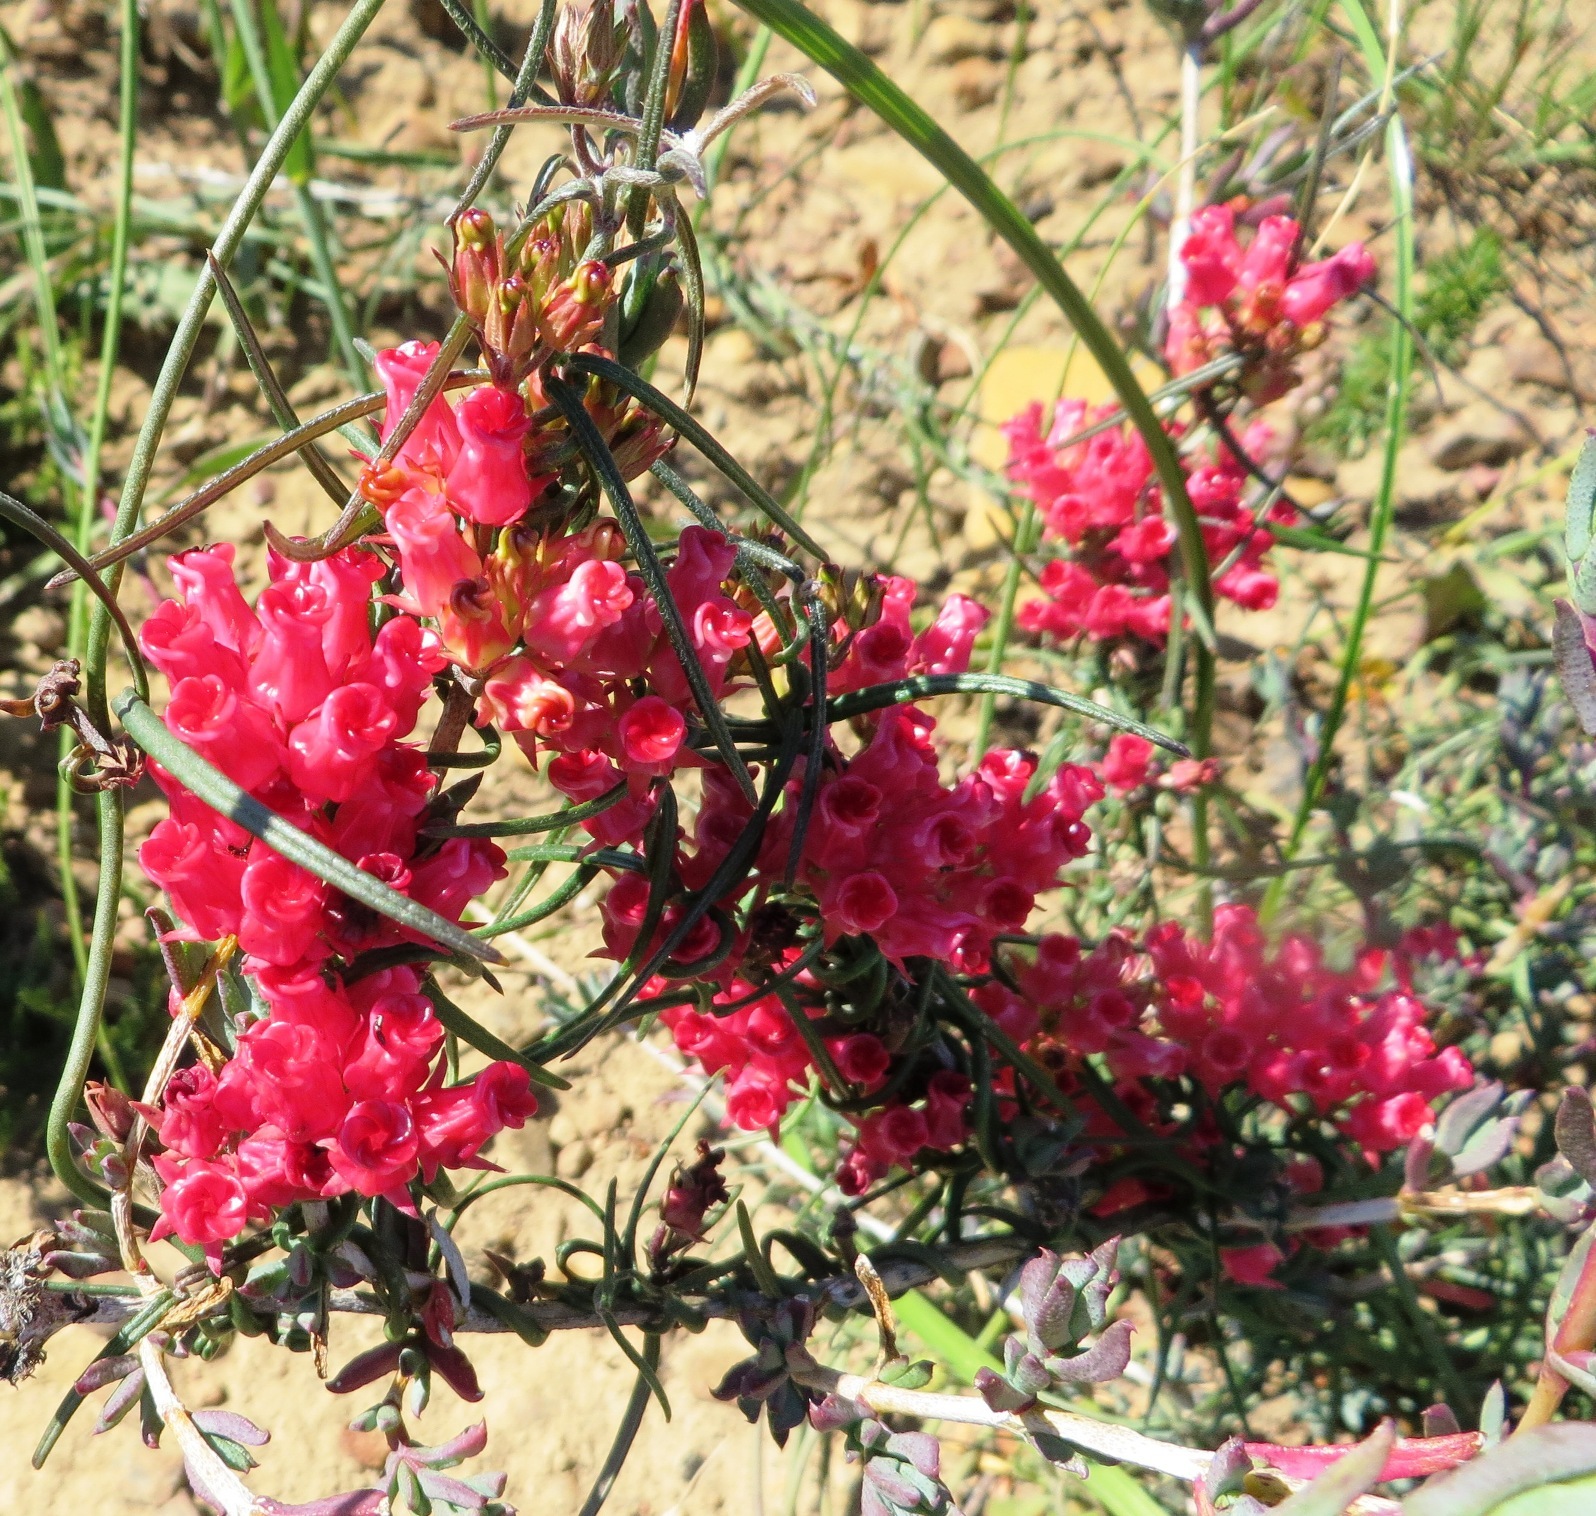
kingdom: Plantae
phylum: Tracheophyta
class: Magnoliopsida
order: Gentianales
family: Apocynaceae
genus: Microloma
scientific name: Microloma tenuifolium
